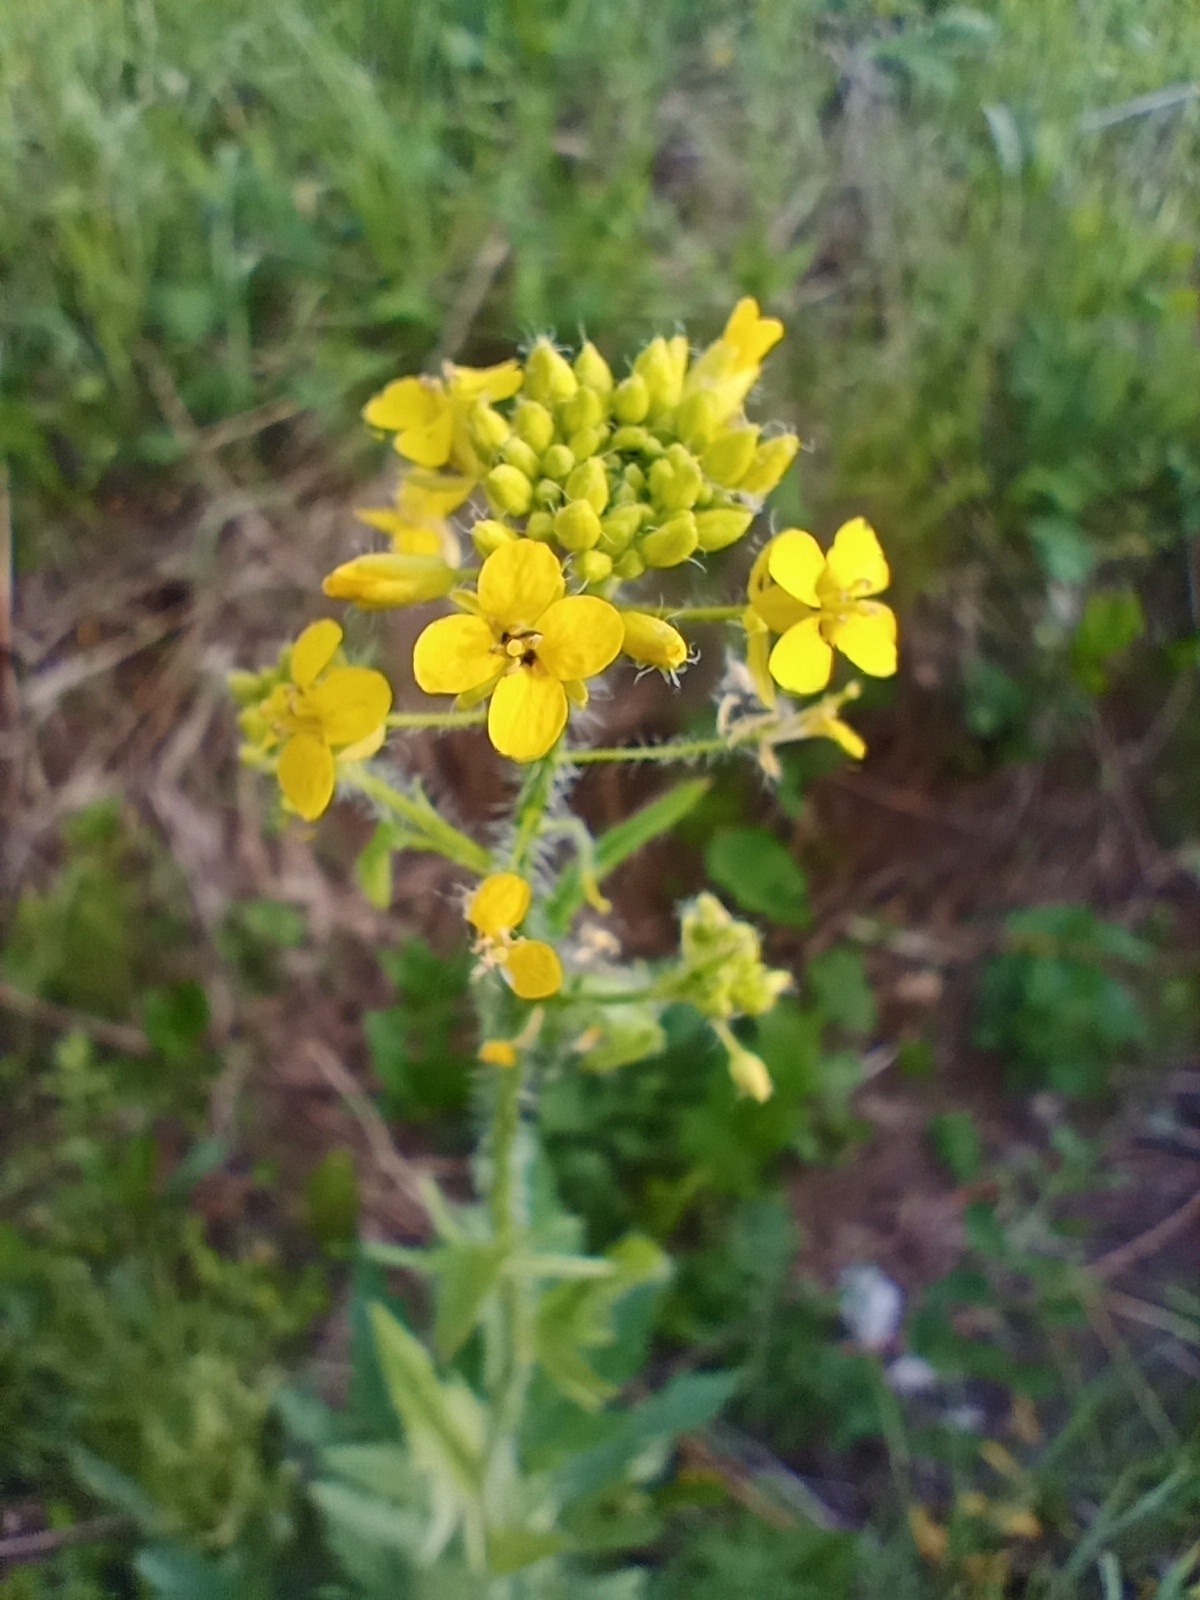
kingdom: Plantae
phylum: Tracheophyta
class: Magnoliopsida
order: Brassicales
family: Brassicaceae
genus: Sisymbrium
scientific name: Sisymbrium loeselii
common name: False london-rocket
